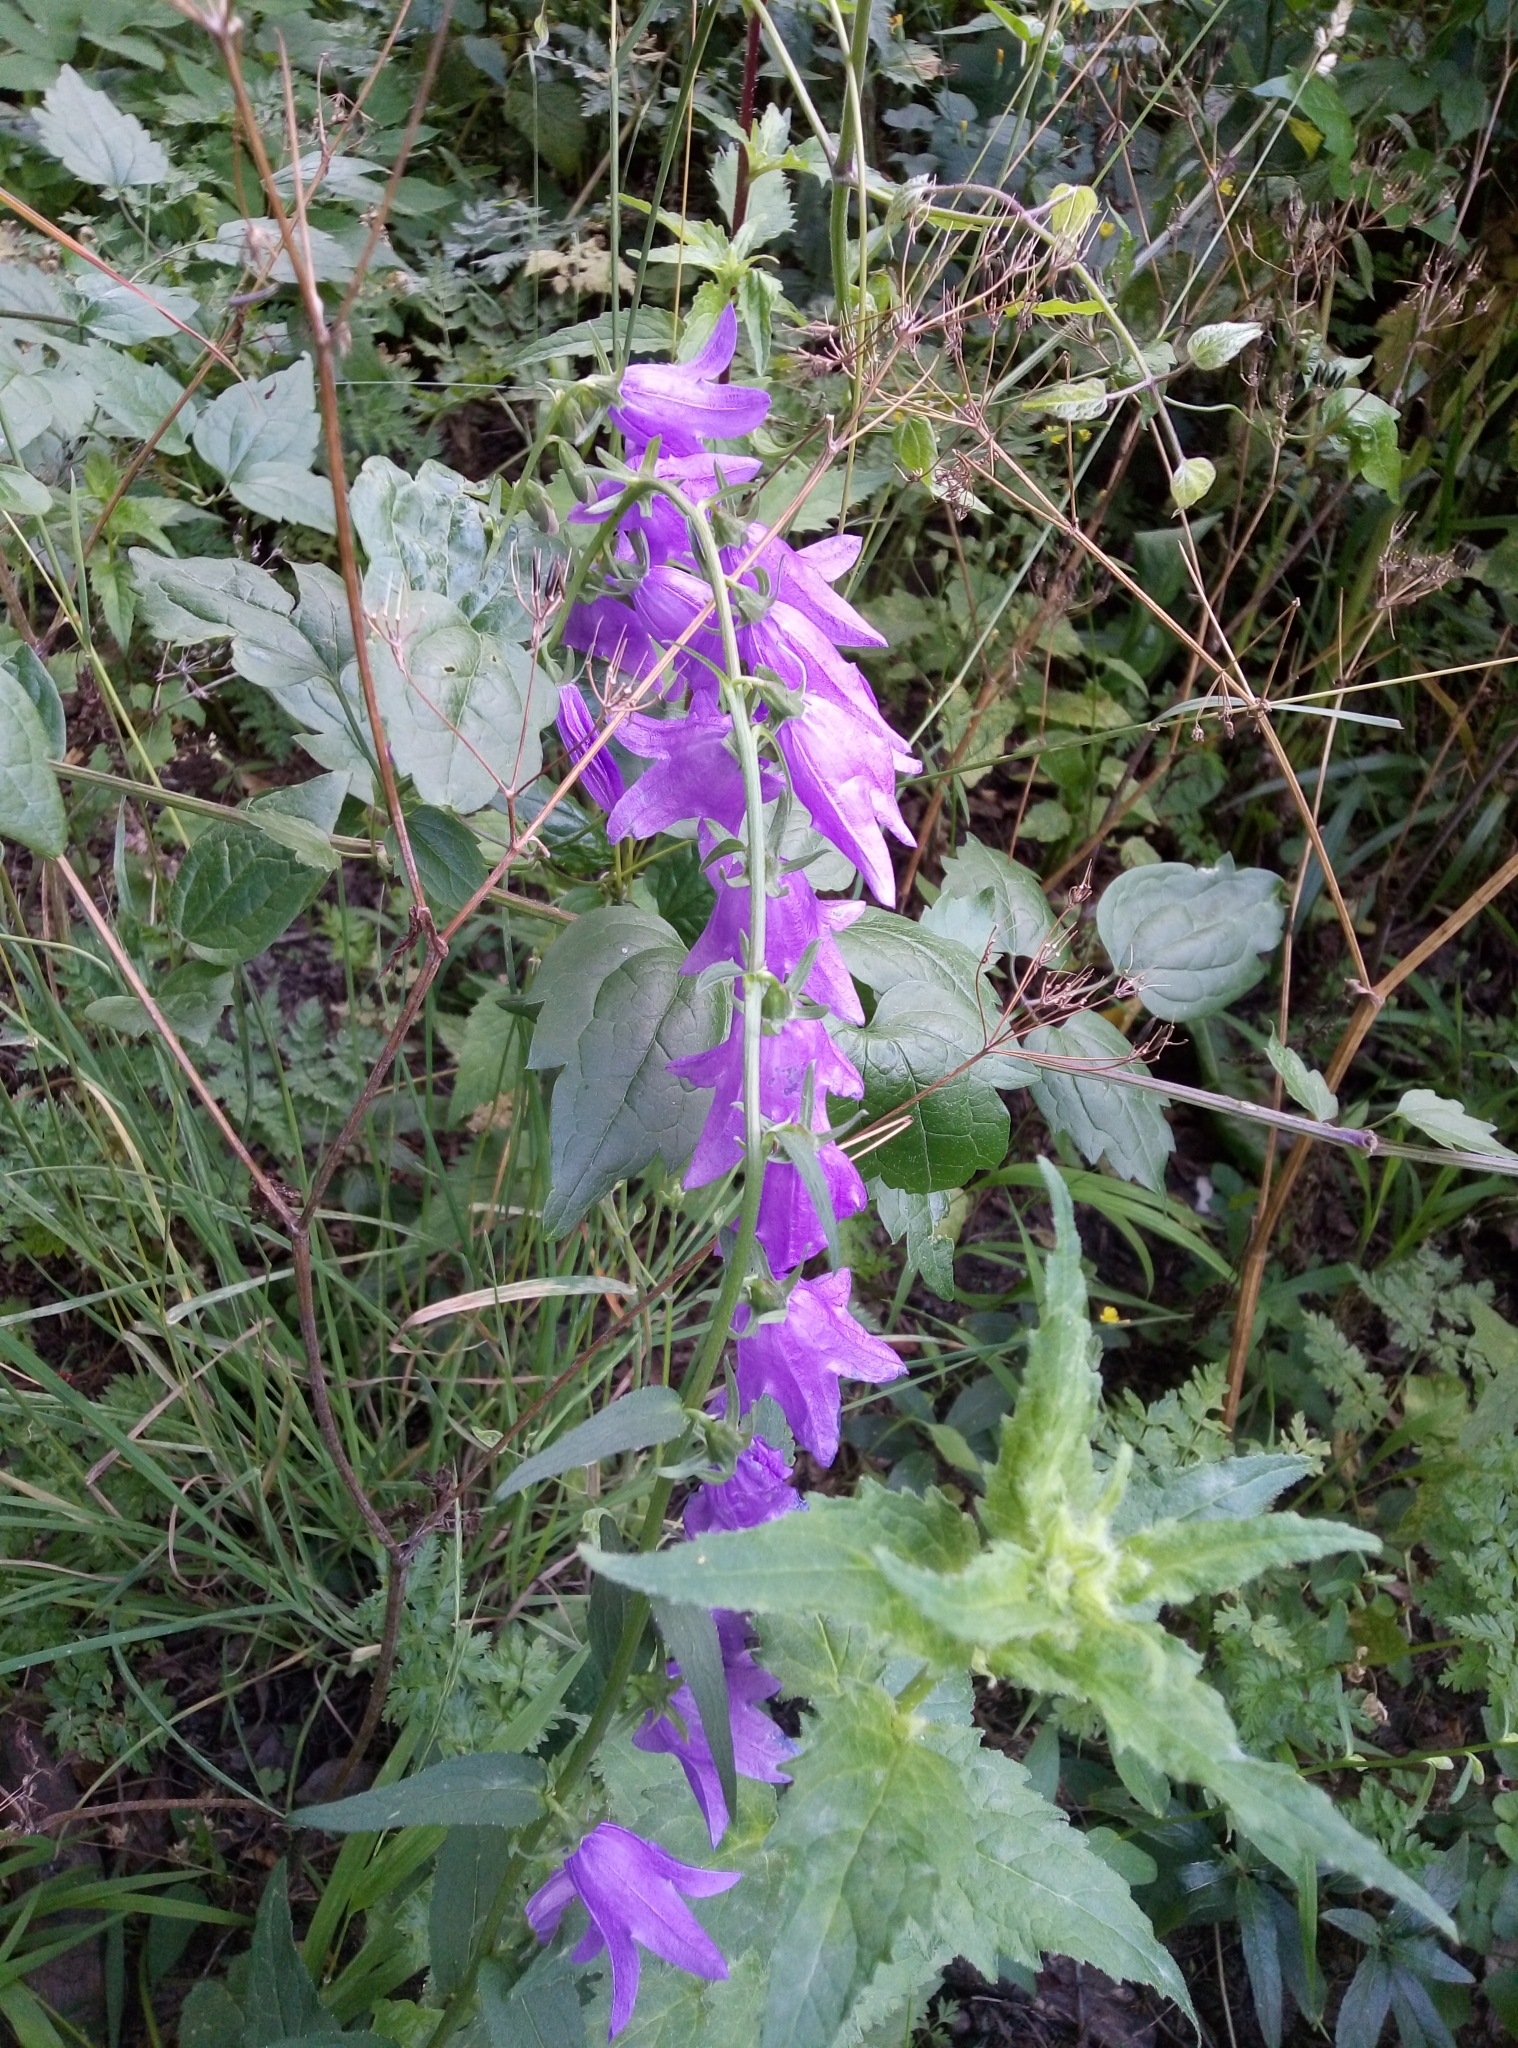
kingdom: Plantae
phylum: Tracheophyta
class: Magnoliopsida
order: Asterales
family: Campanulaceae
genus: Campanula
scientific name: Campanula rapunculoides
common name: Creeping bellflower
